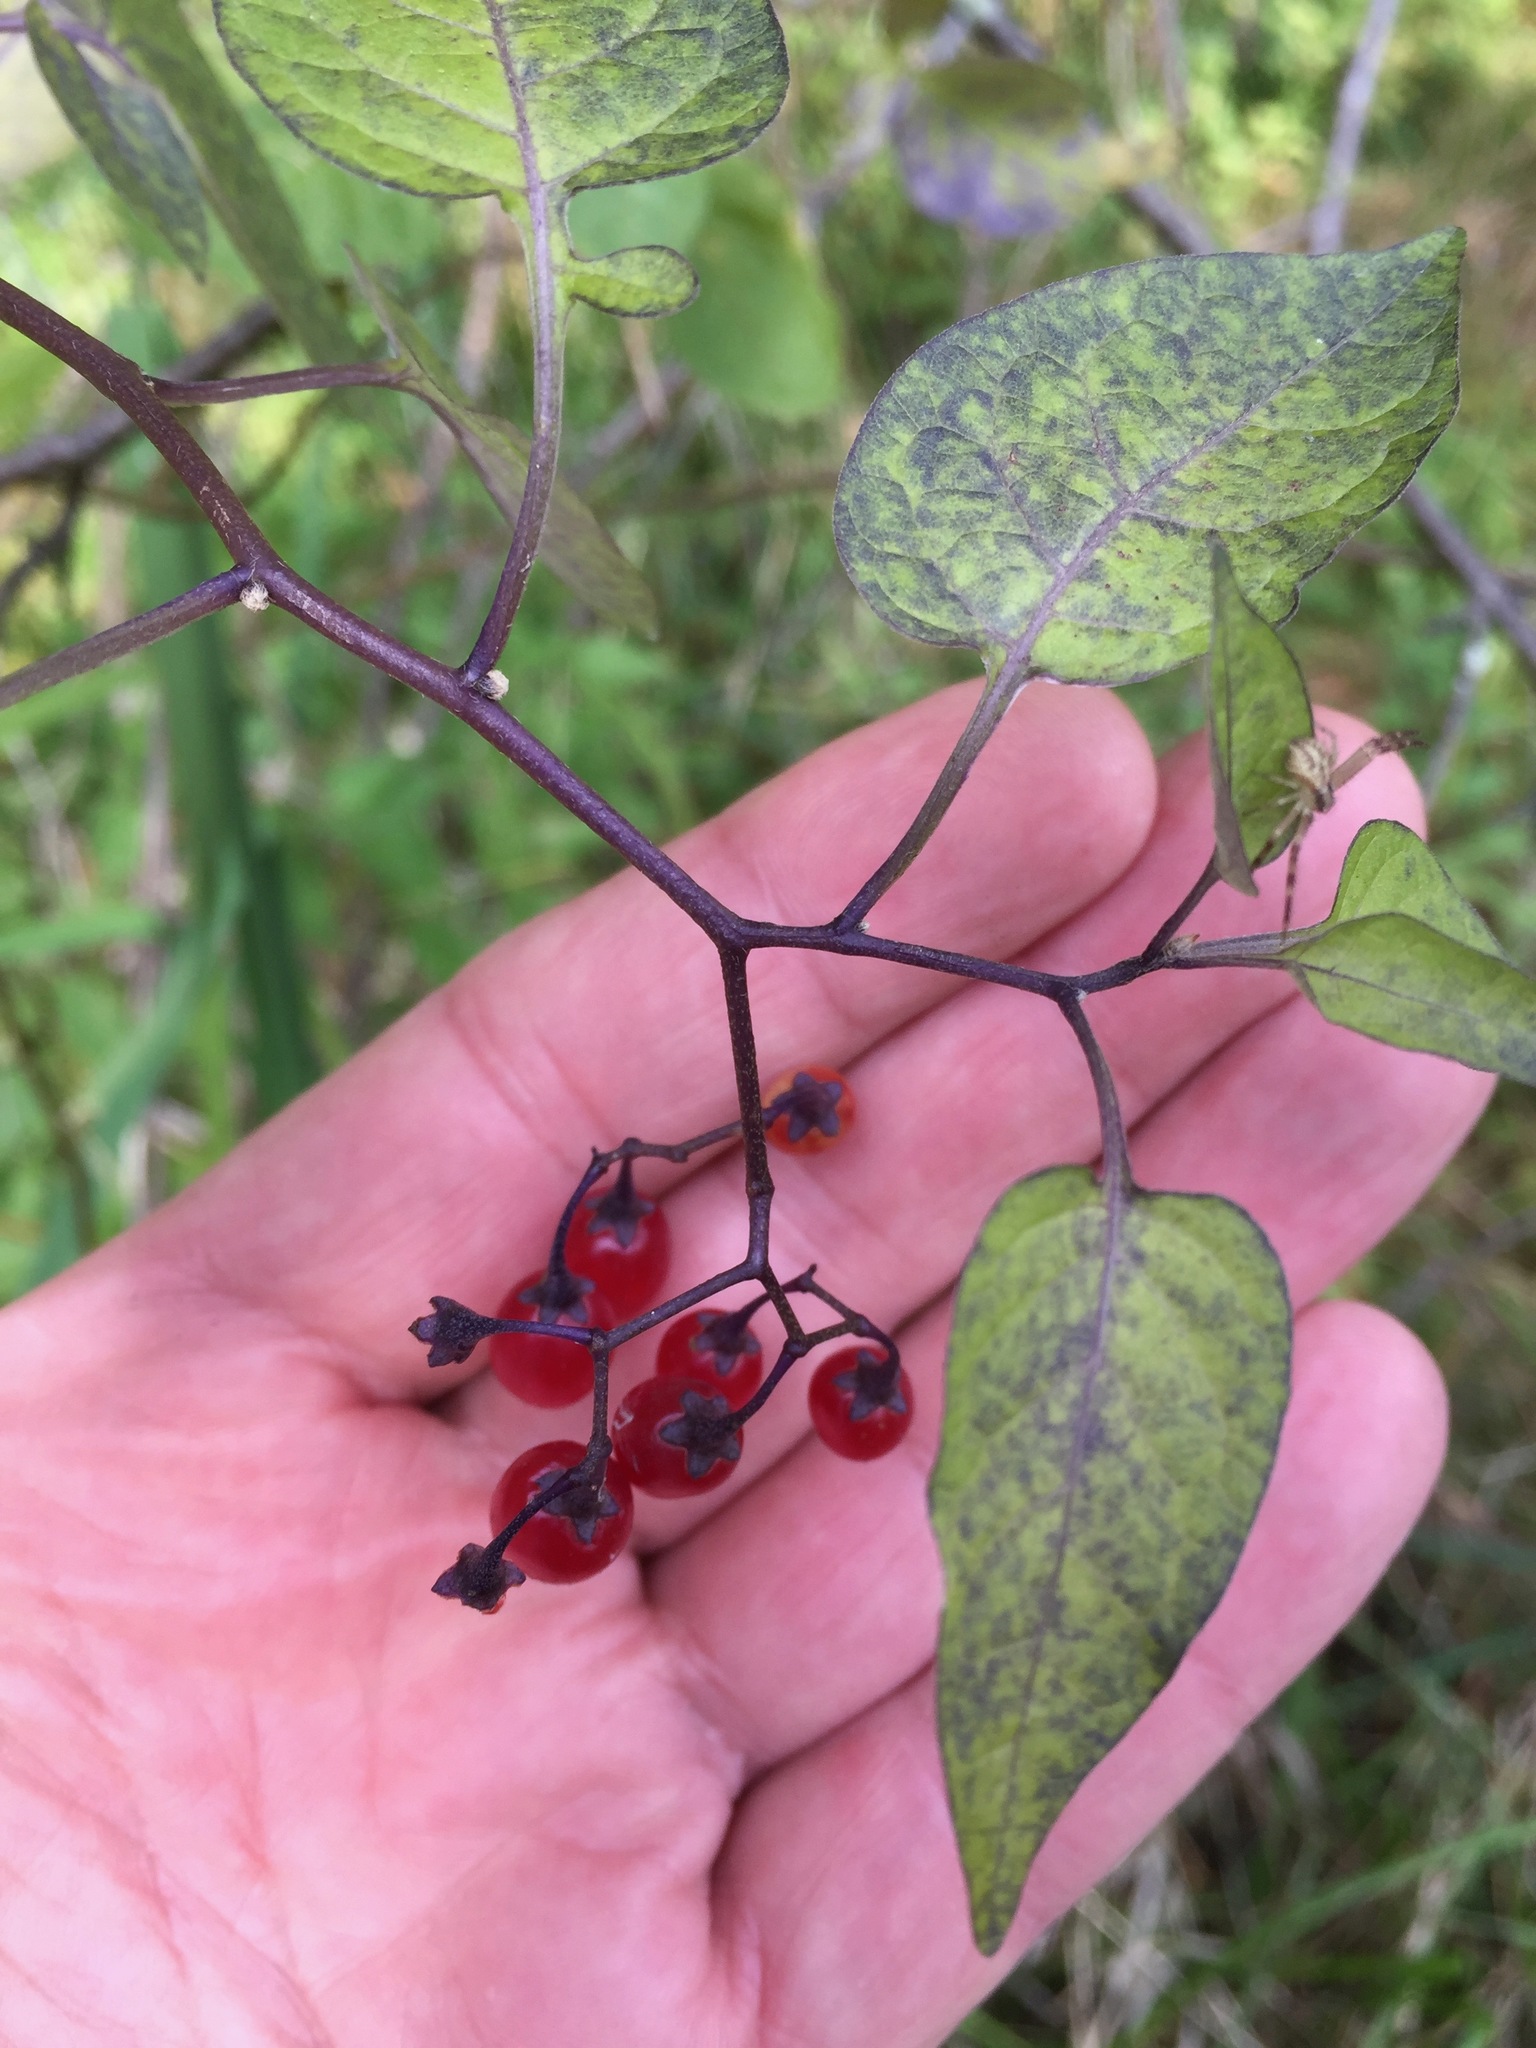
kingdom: Plantae
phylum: Tracheophyta
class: Magnoliopsida
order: Solanales
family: Solanaceae
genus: Solanum
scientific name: Solanum dulcamara
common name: Climbing nightshade
